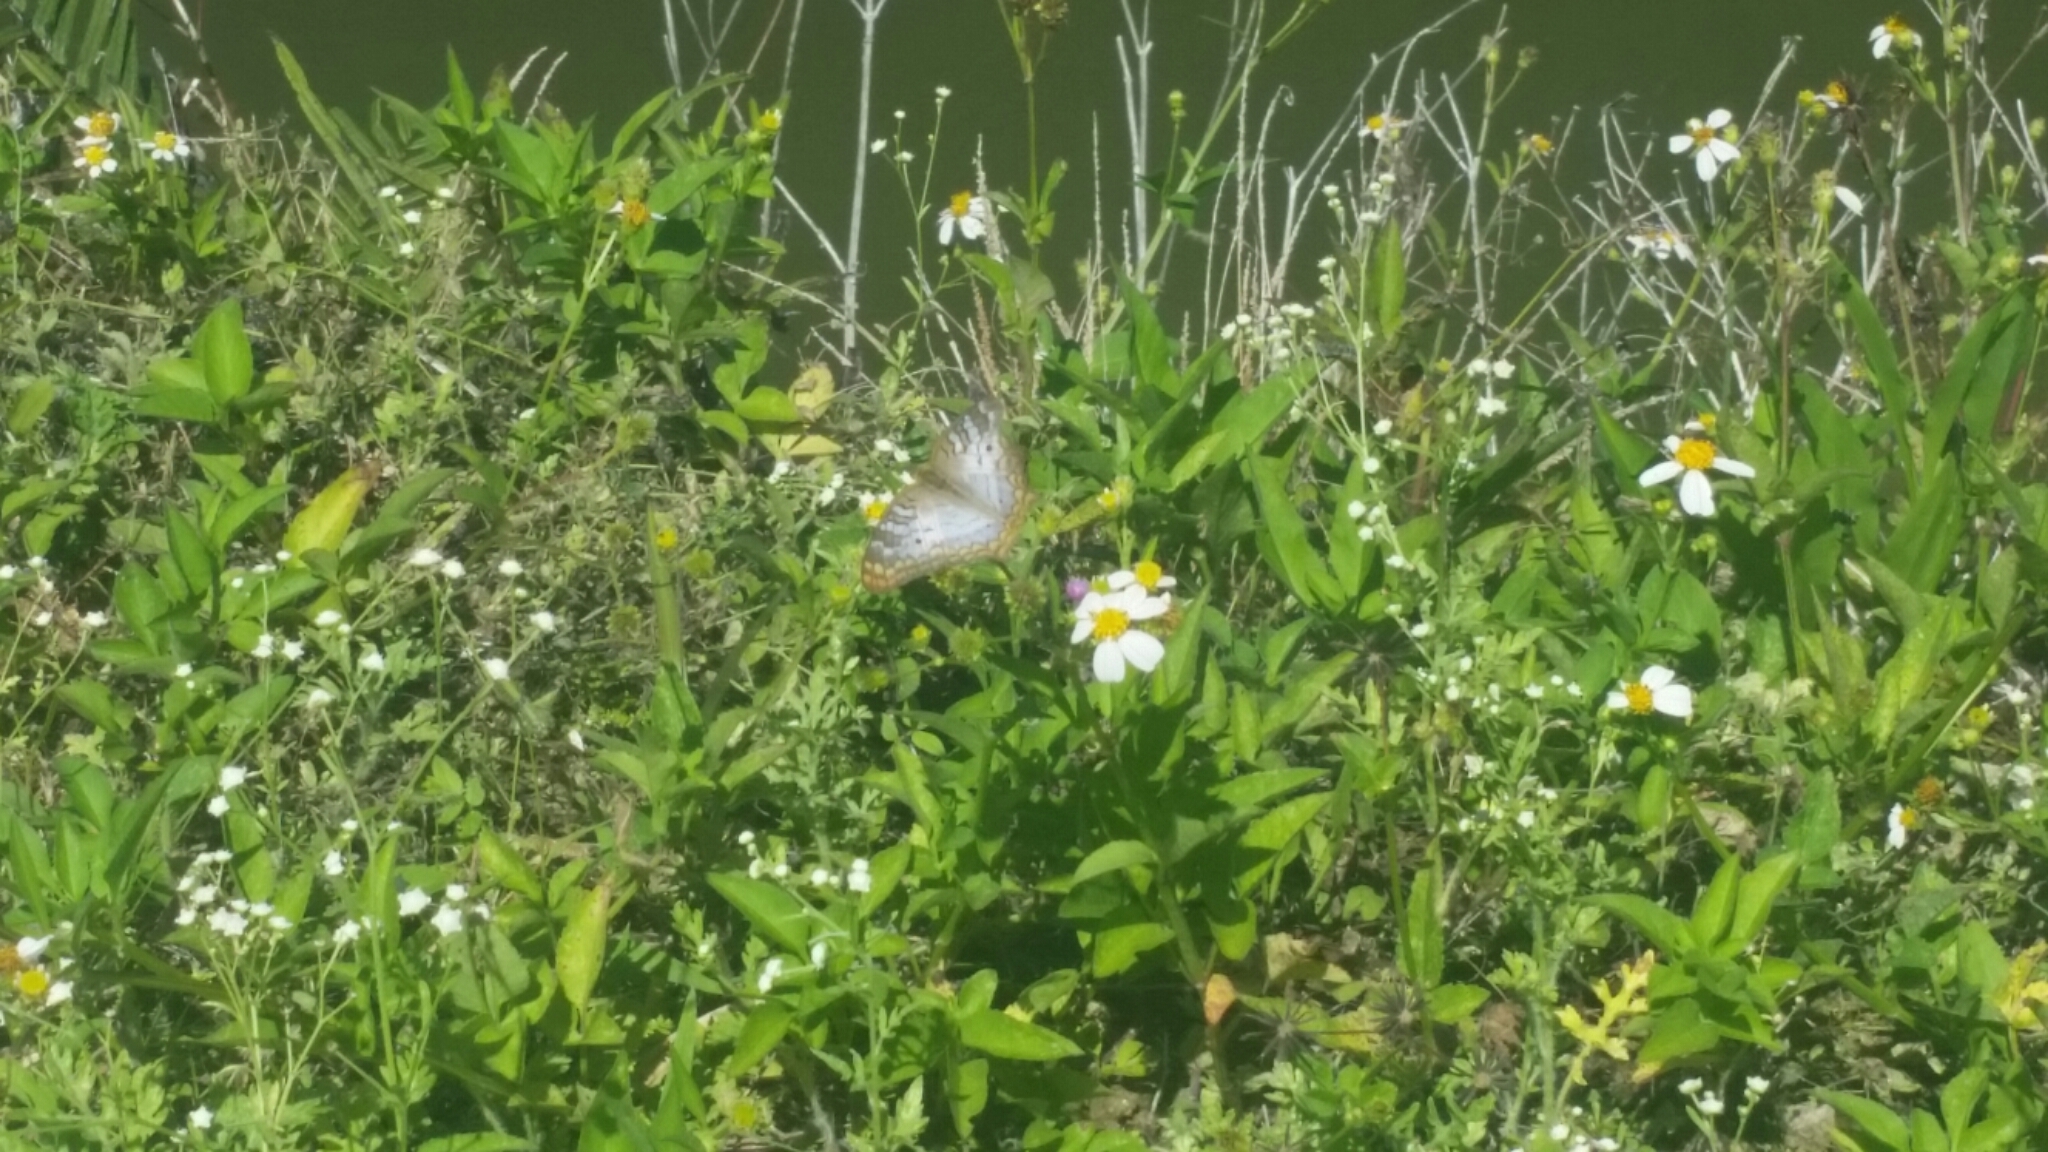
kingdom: Animalia
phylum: Arthropoda
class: Insecta
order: Lepidoptera
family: Nymphalidae
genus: Anartia
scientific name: Anartia jatrophae
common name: White peacock
